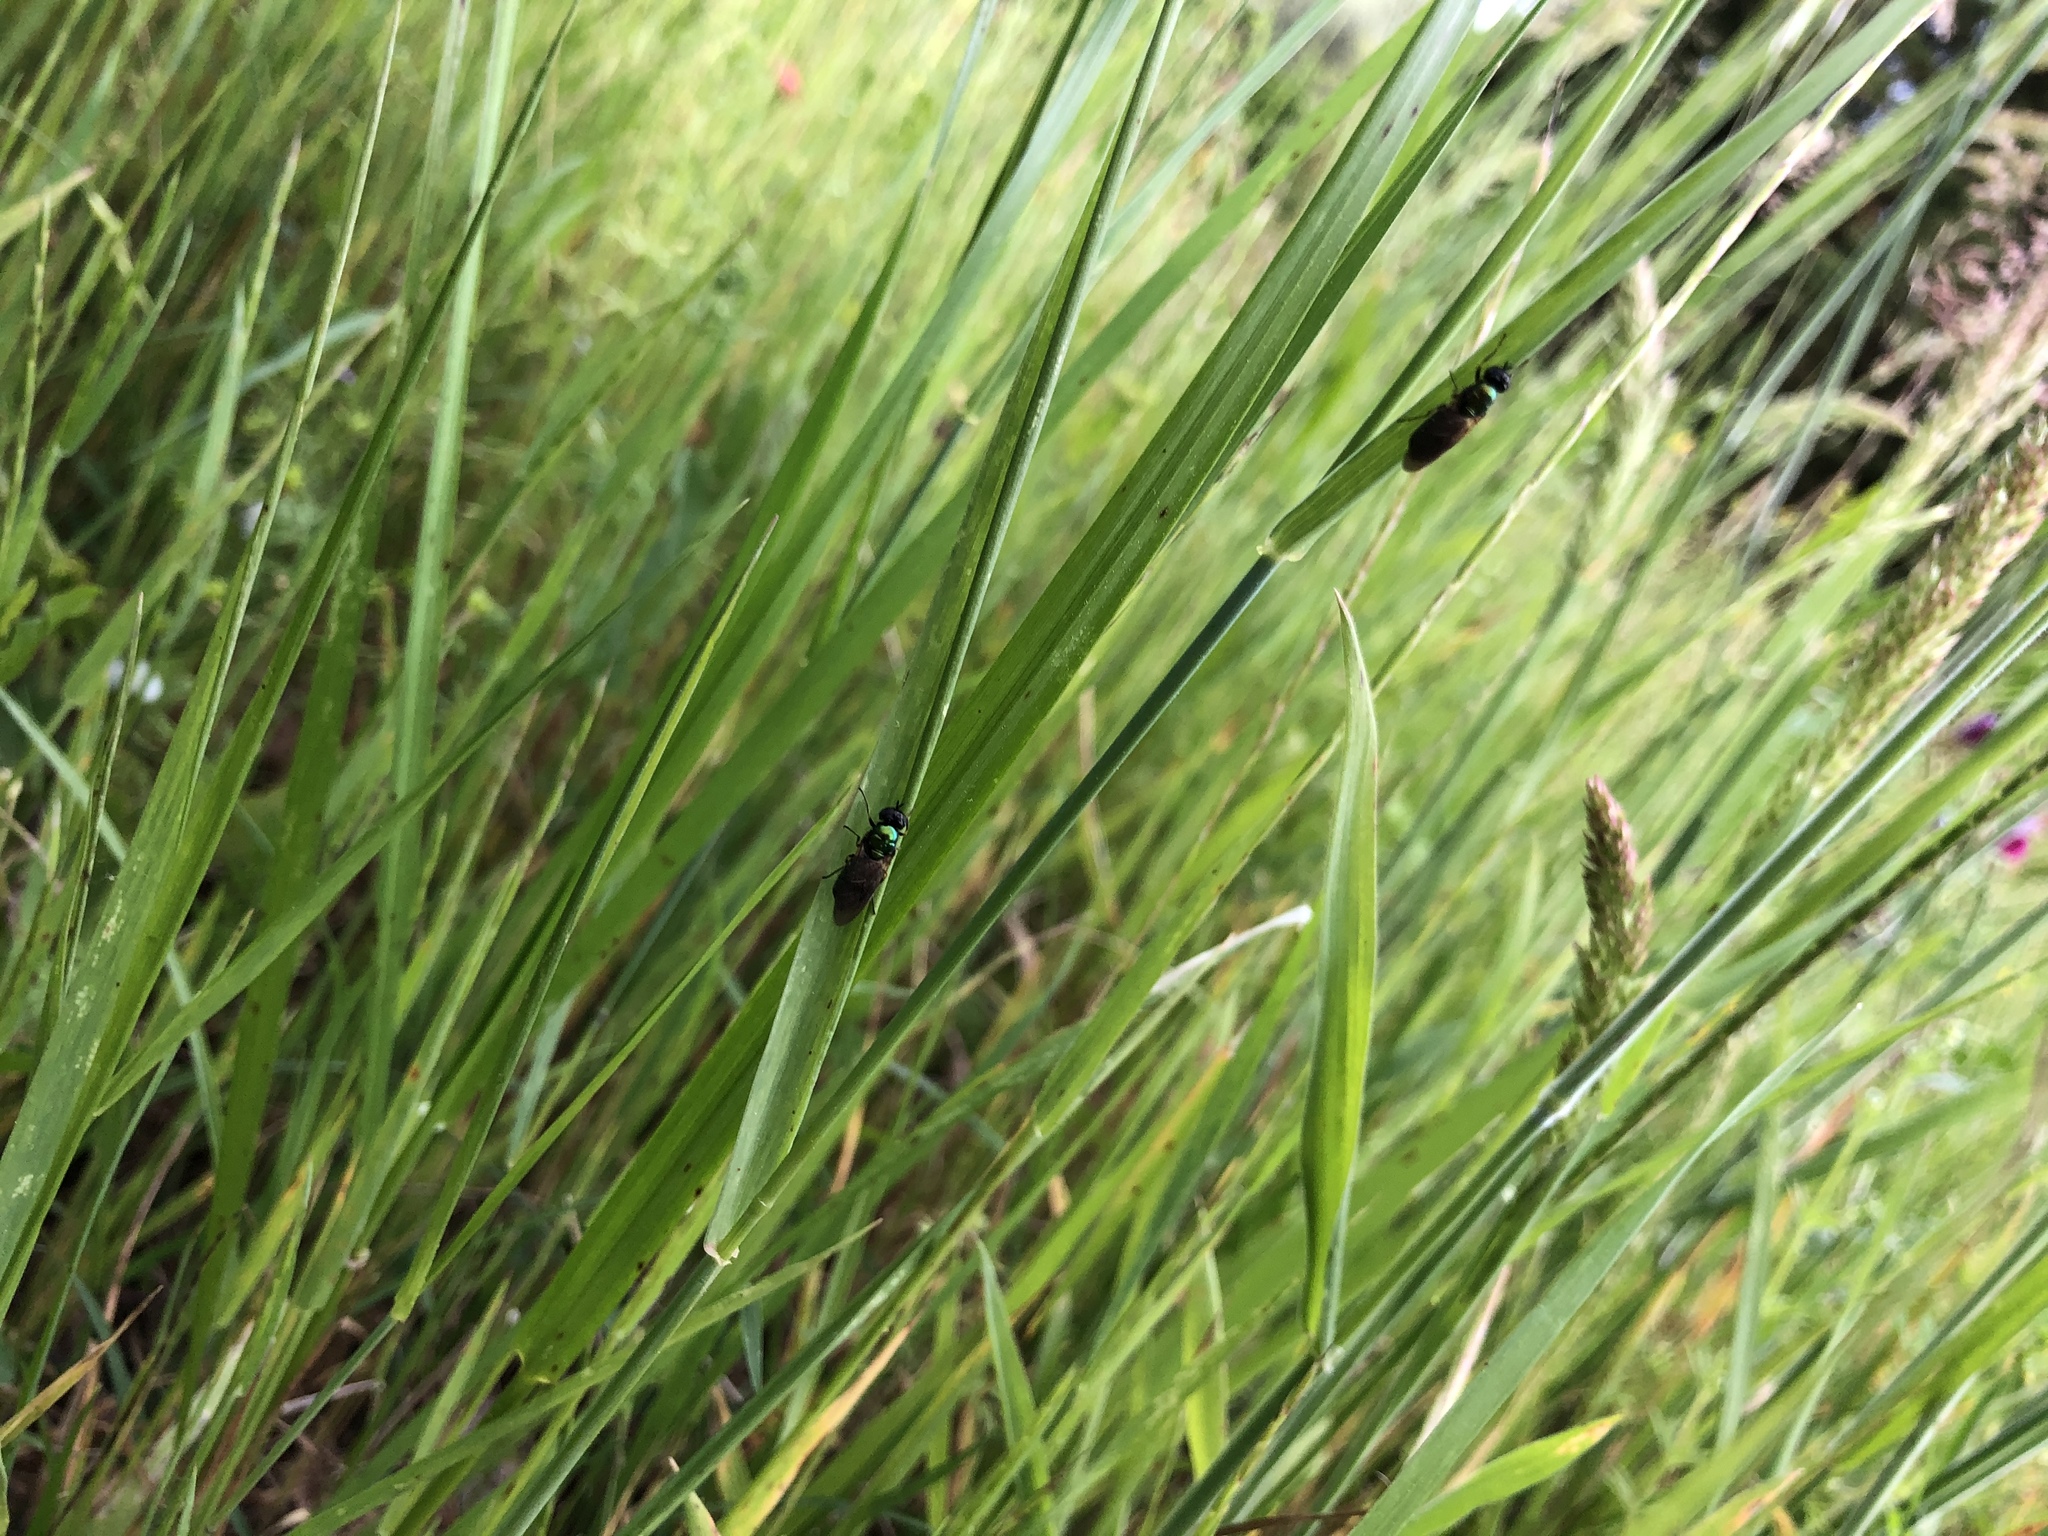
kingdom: Animalia
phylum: Arthropoda
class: Insecta
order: Diptera
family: Stratiomyidae
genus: Chloromyia
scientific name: Chloromyia formosa
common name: Soldier fly
